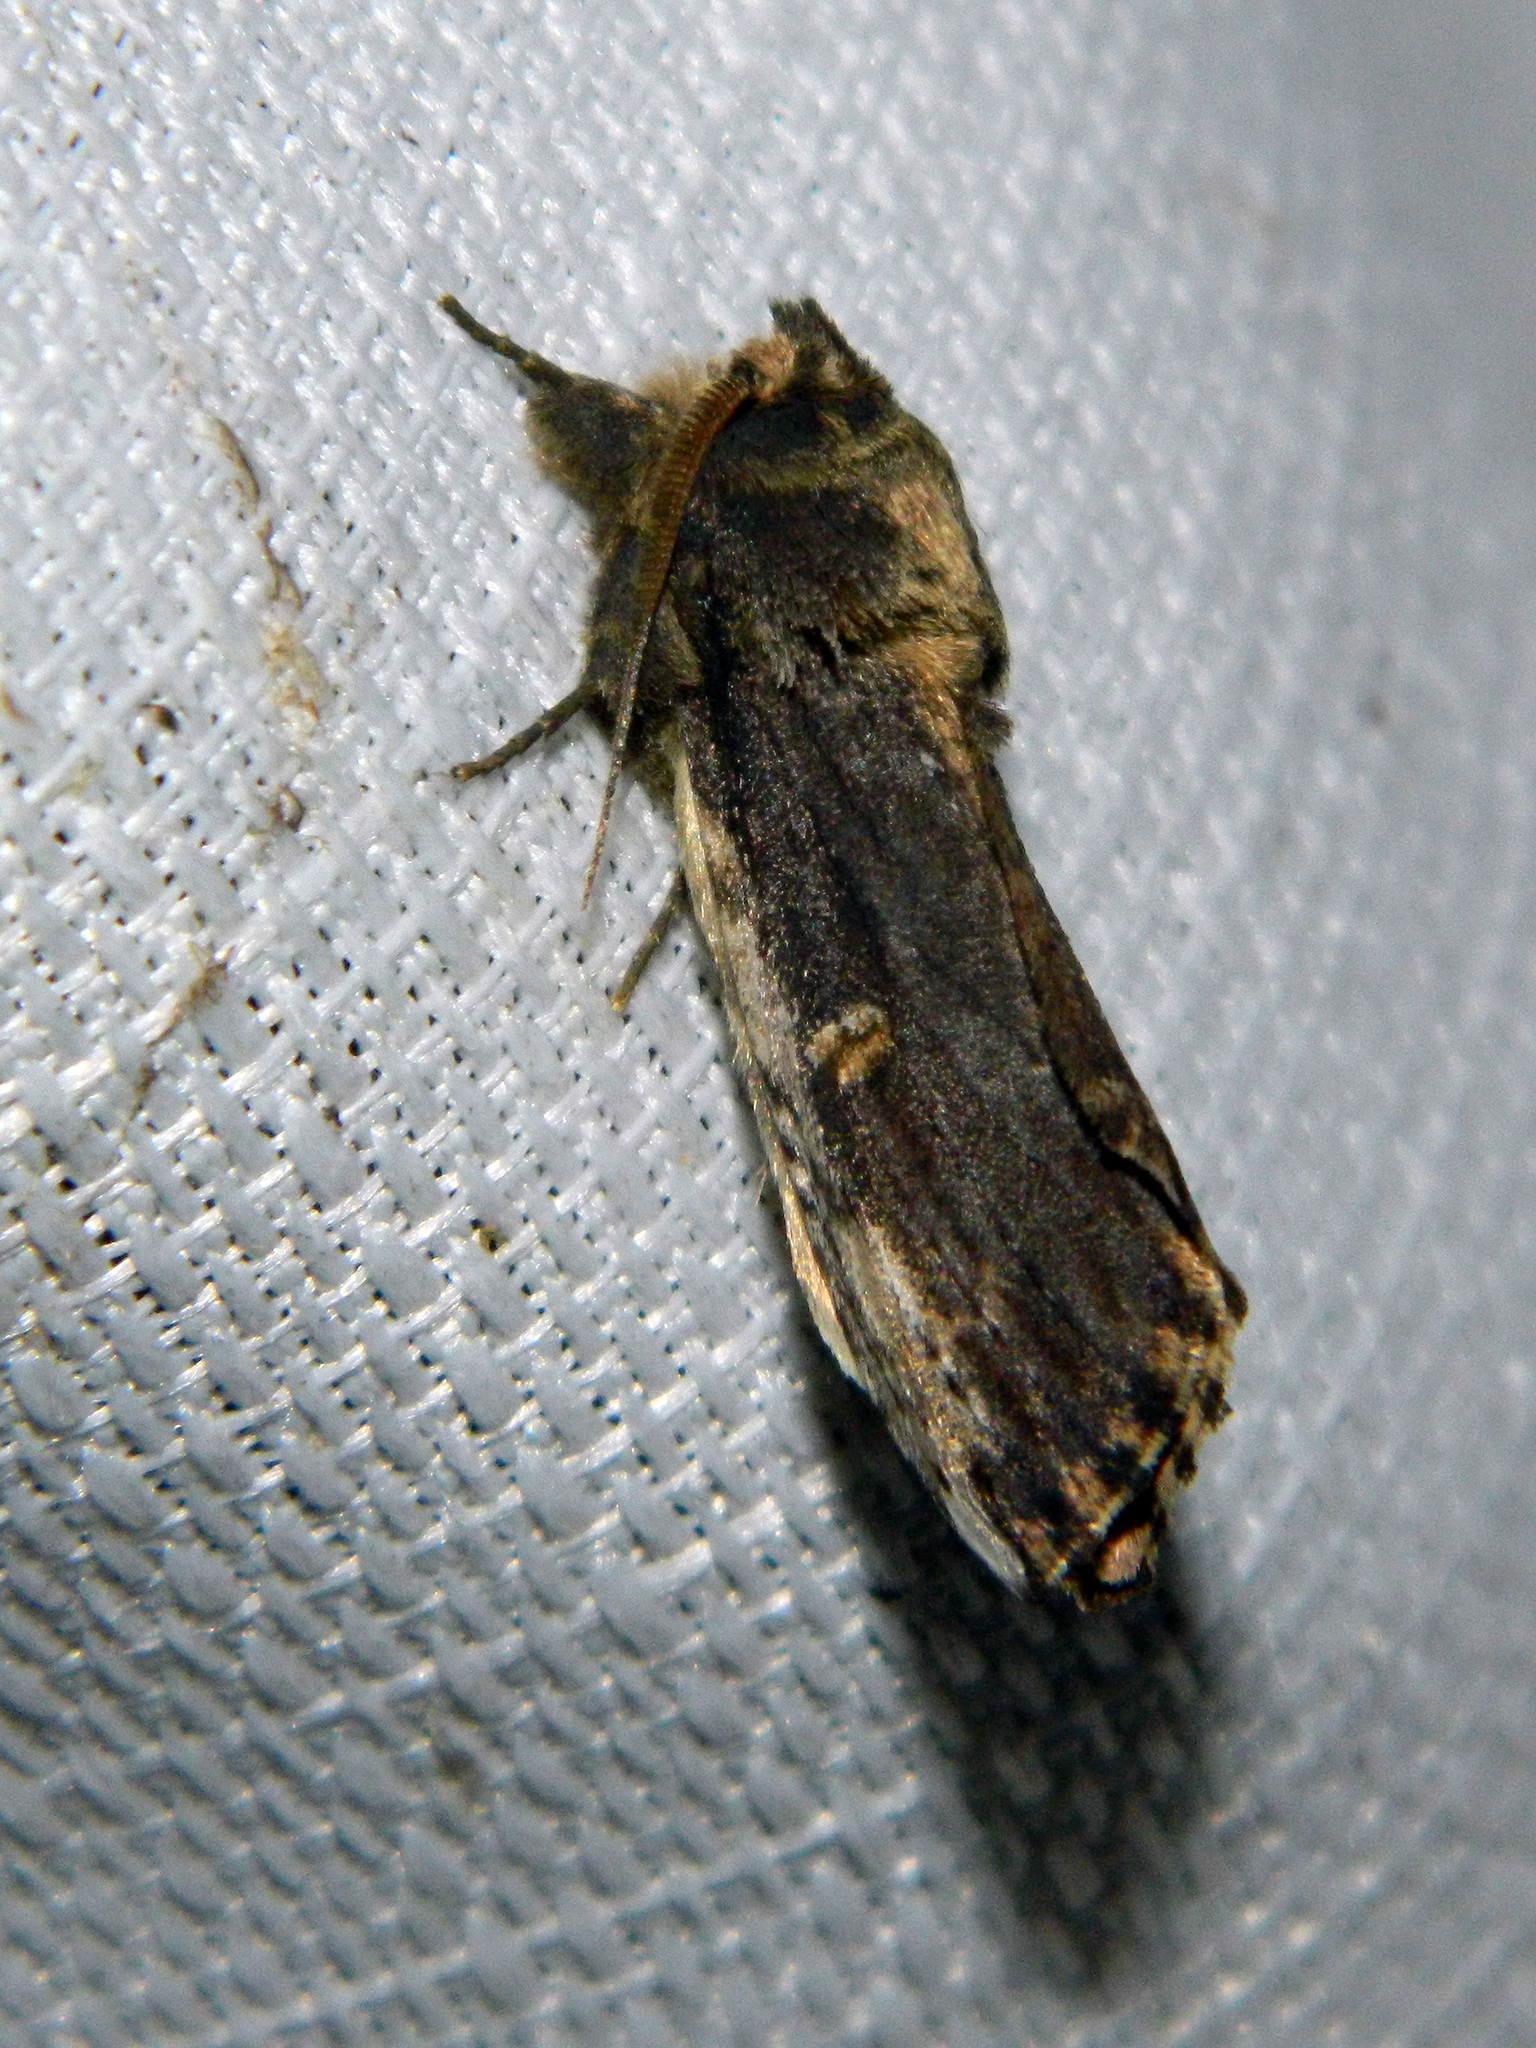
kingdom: Animalia
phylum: Arthropoda
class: Insecta
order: Lepidoptera
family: Notodontidae
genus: Schizura
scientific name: Schizura ipomaeae
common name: Morning-glory prominent
